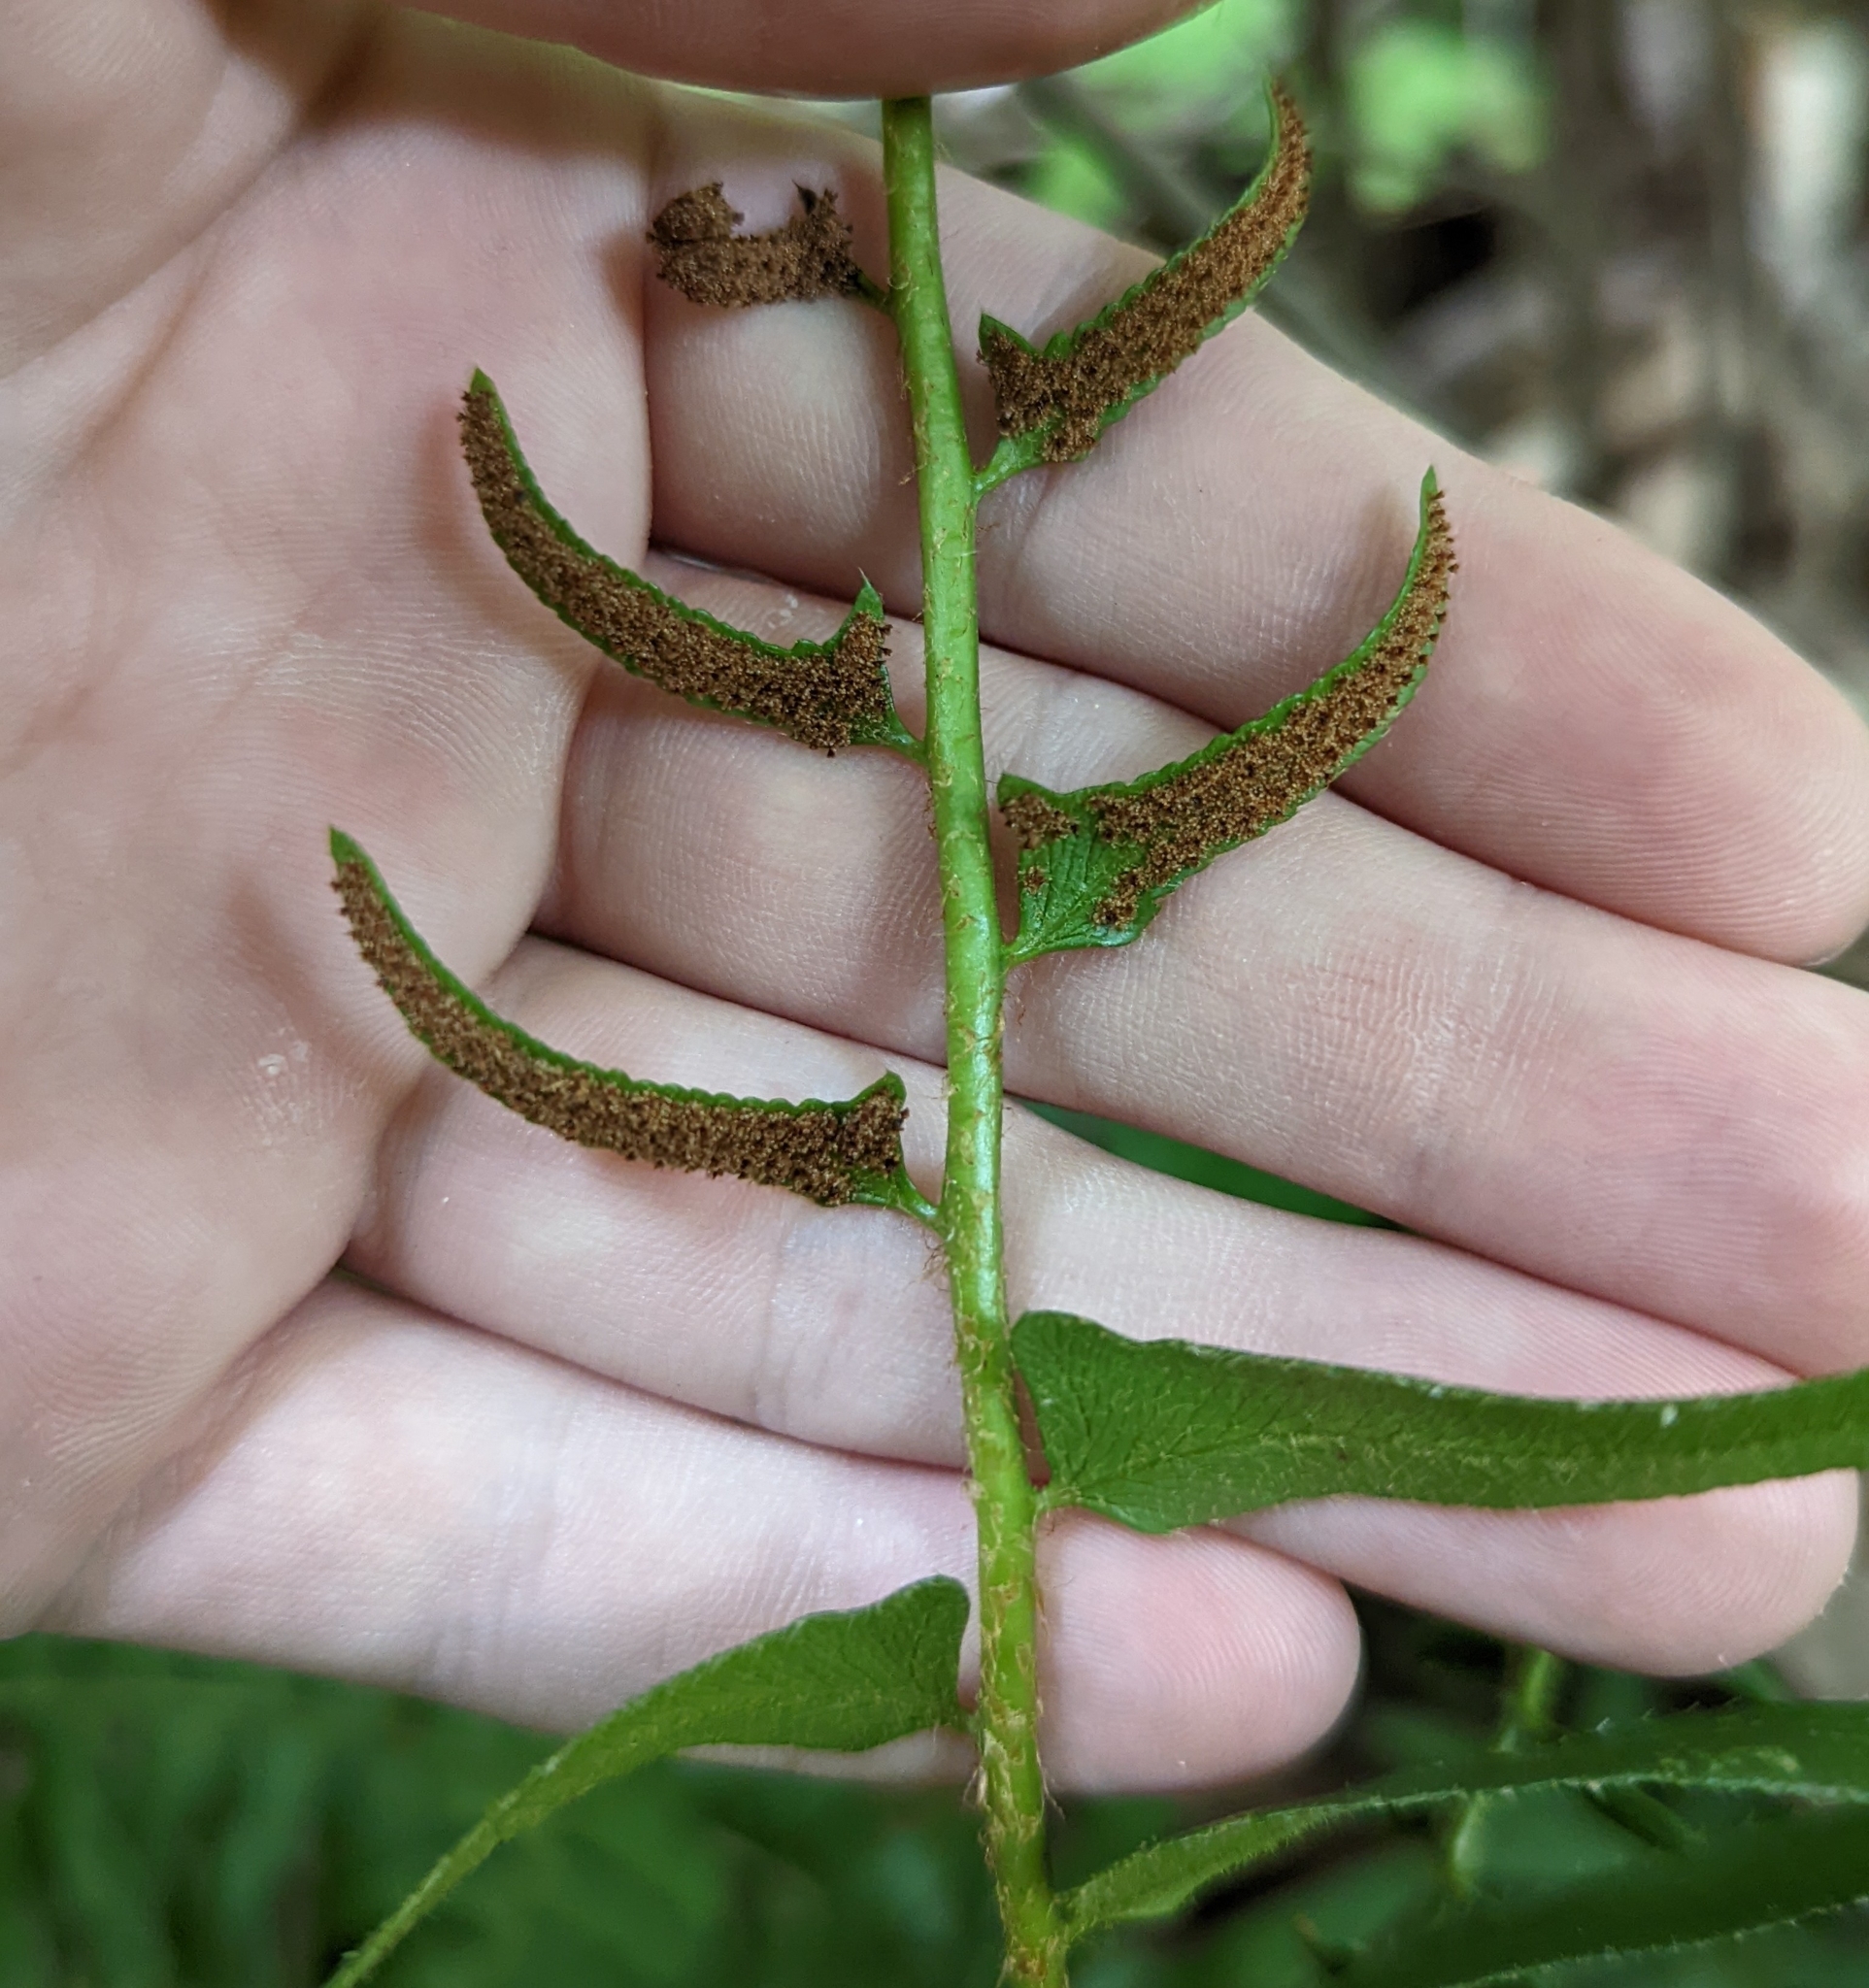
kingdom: Plantae
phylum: Tracheophyta
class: Polypodiopsida
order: Polypodiales
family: Dryopteridaceae
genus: Polystichum
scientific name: Polystichum acrostichoides
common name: Christmas fern
